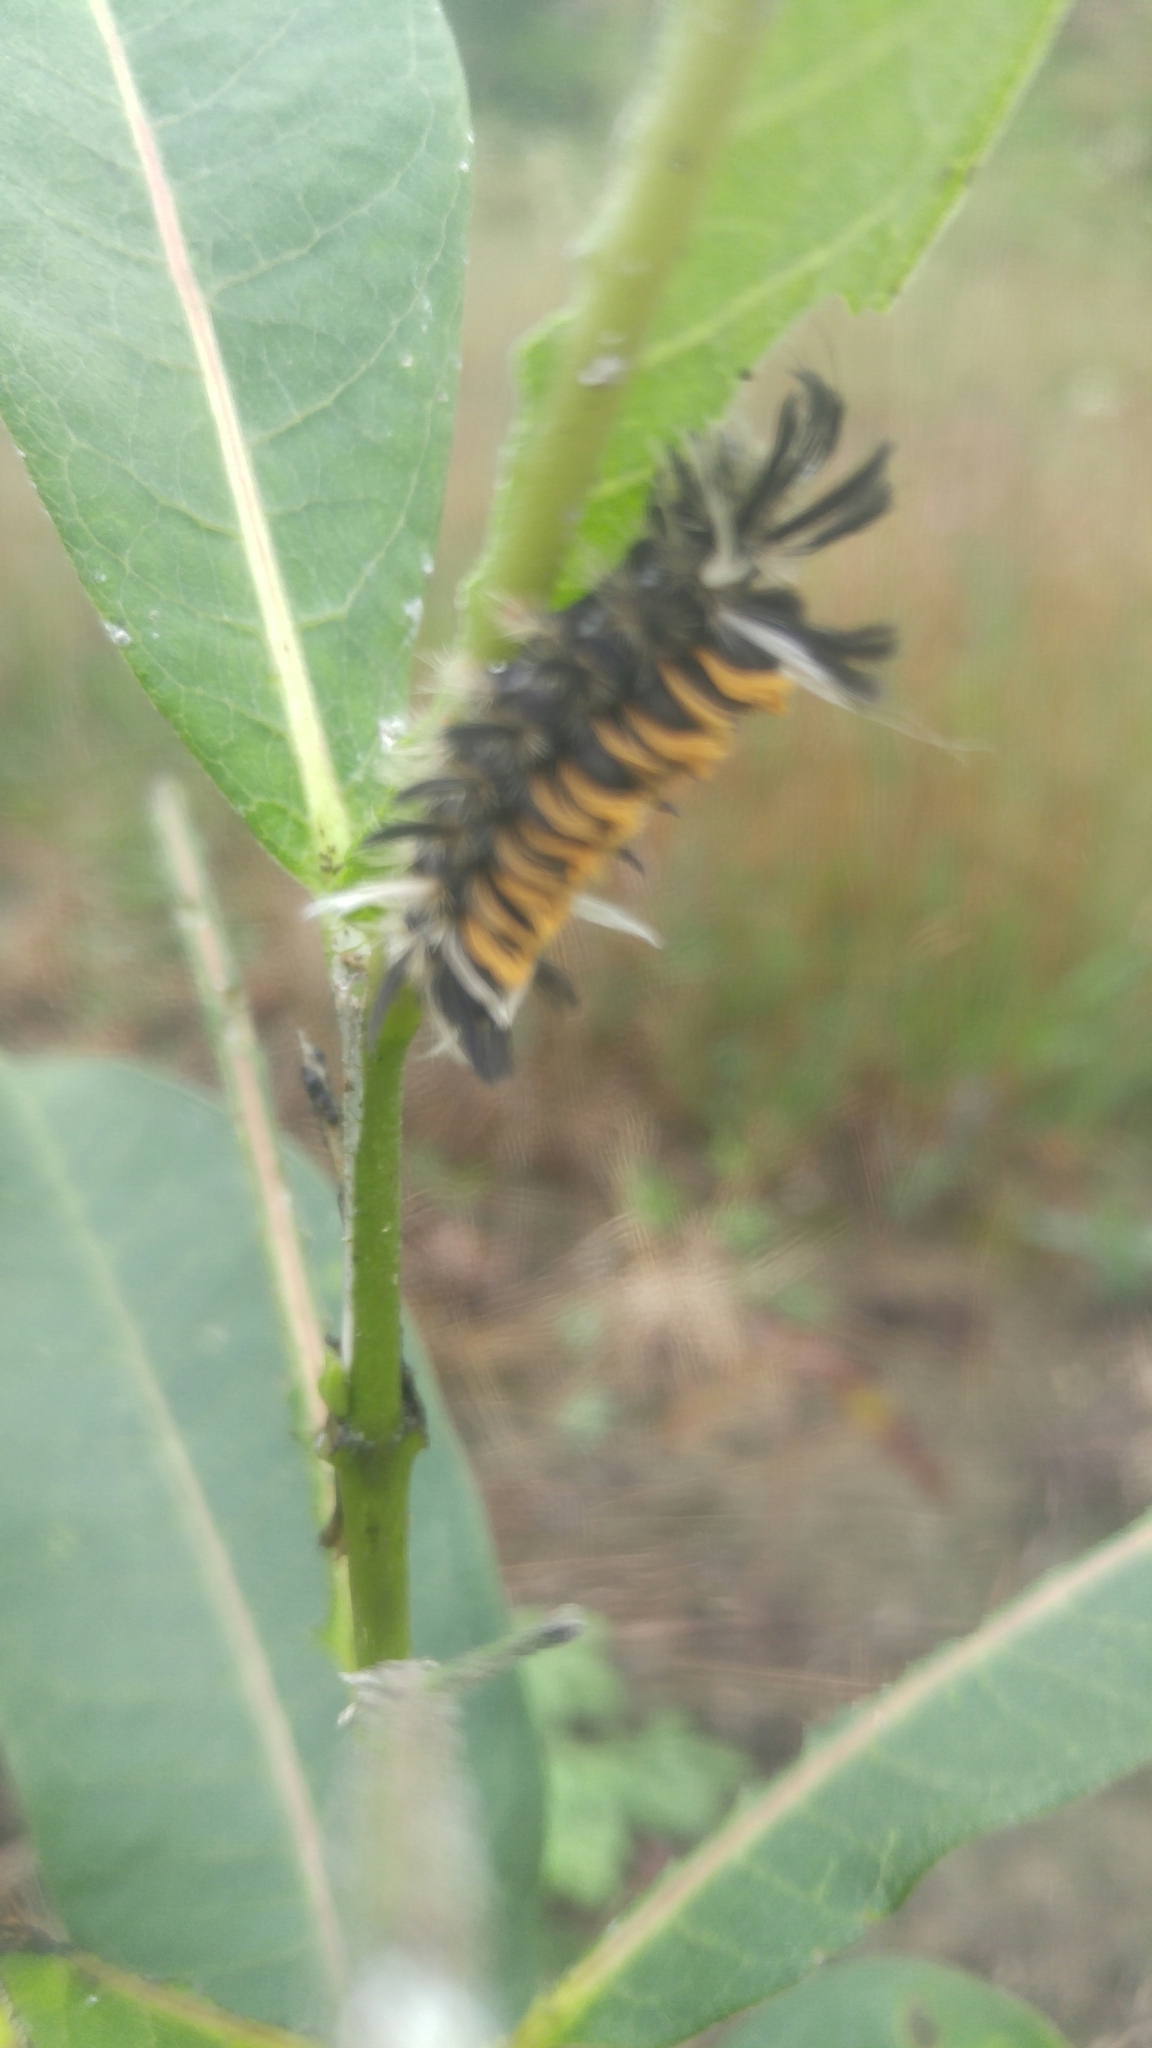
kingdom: Animalia
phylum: Arthropoda
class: Insecta
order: Lepidoptera
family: Erebidae
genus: Euchaetes
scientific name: Euchaetes egle
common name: Milkweed tussock moth
